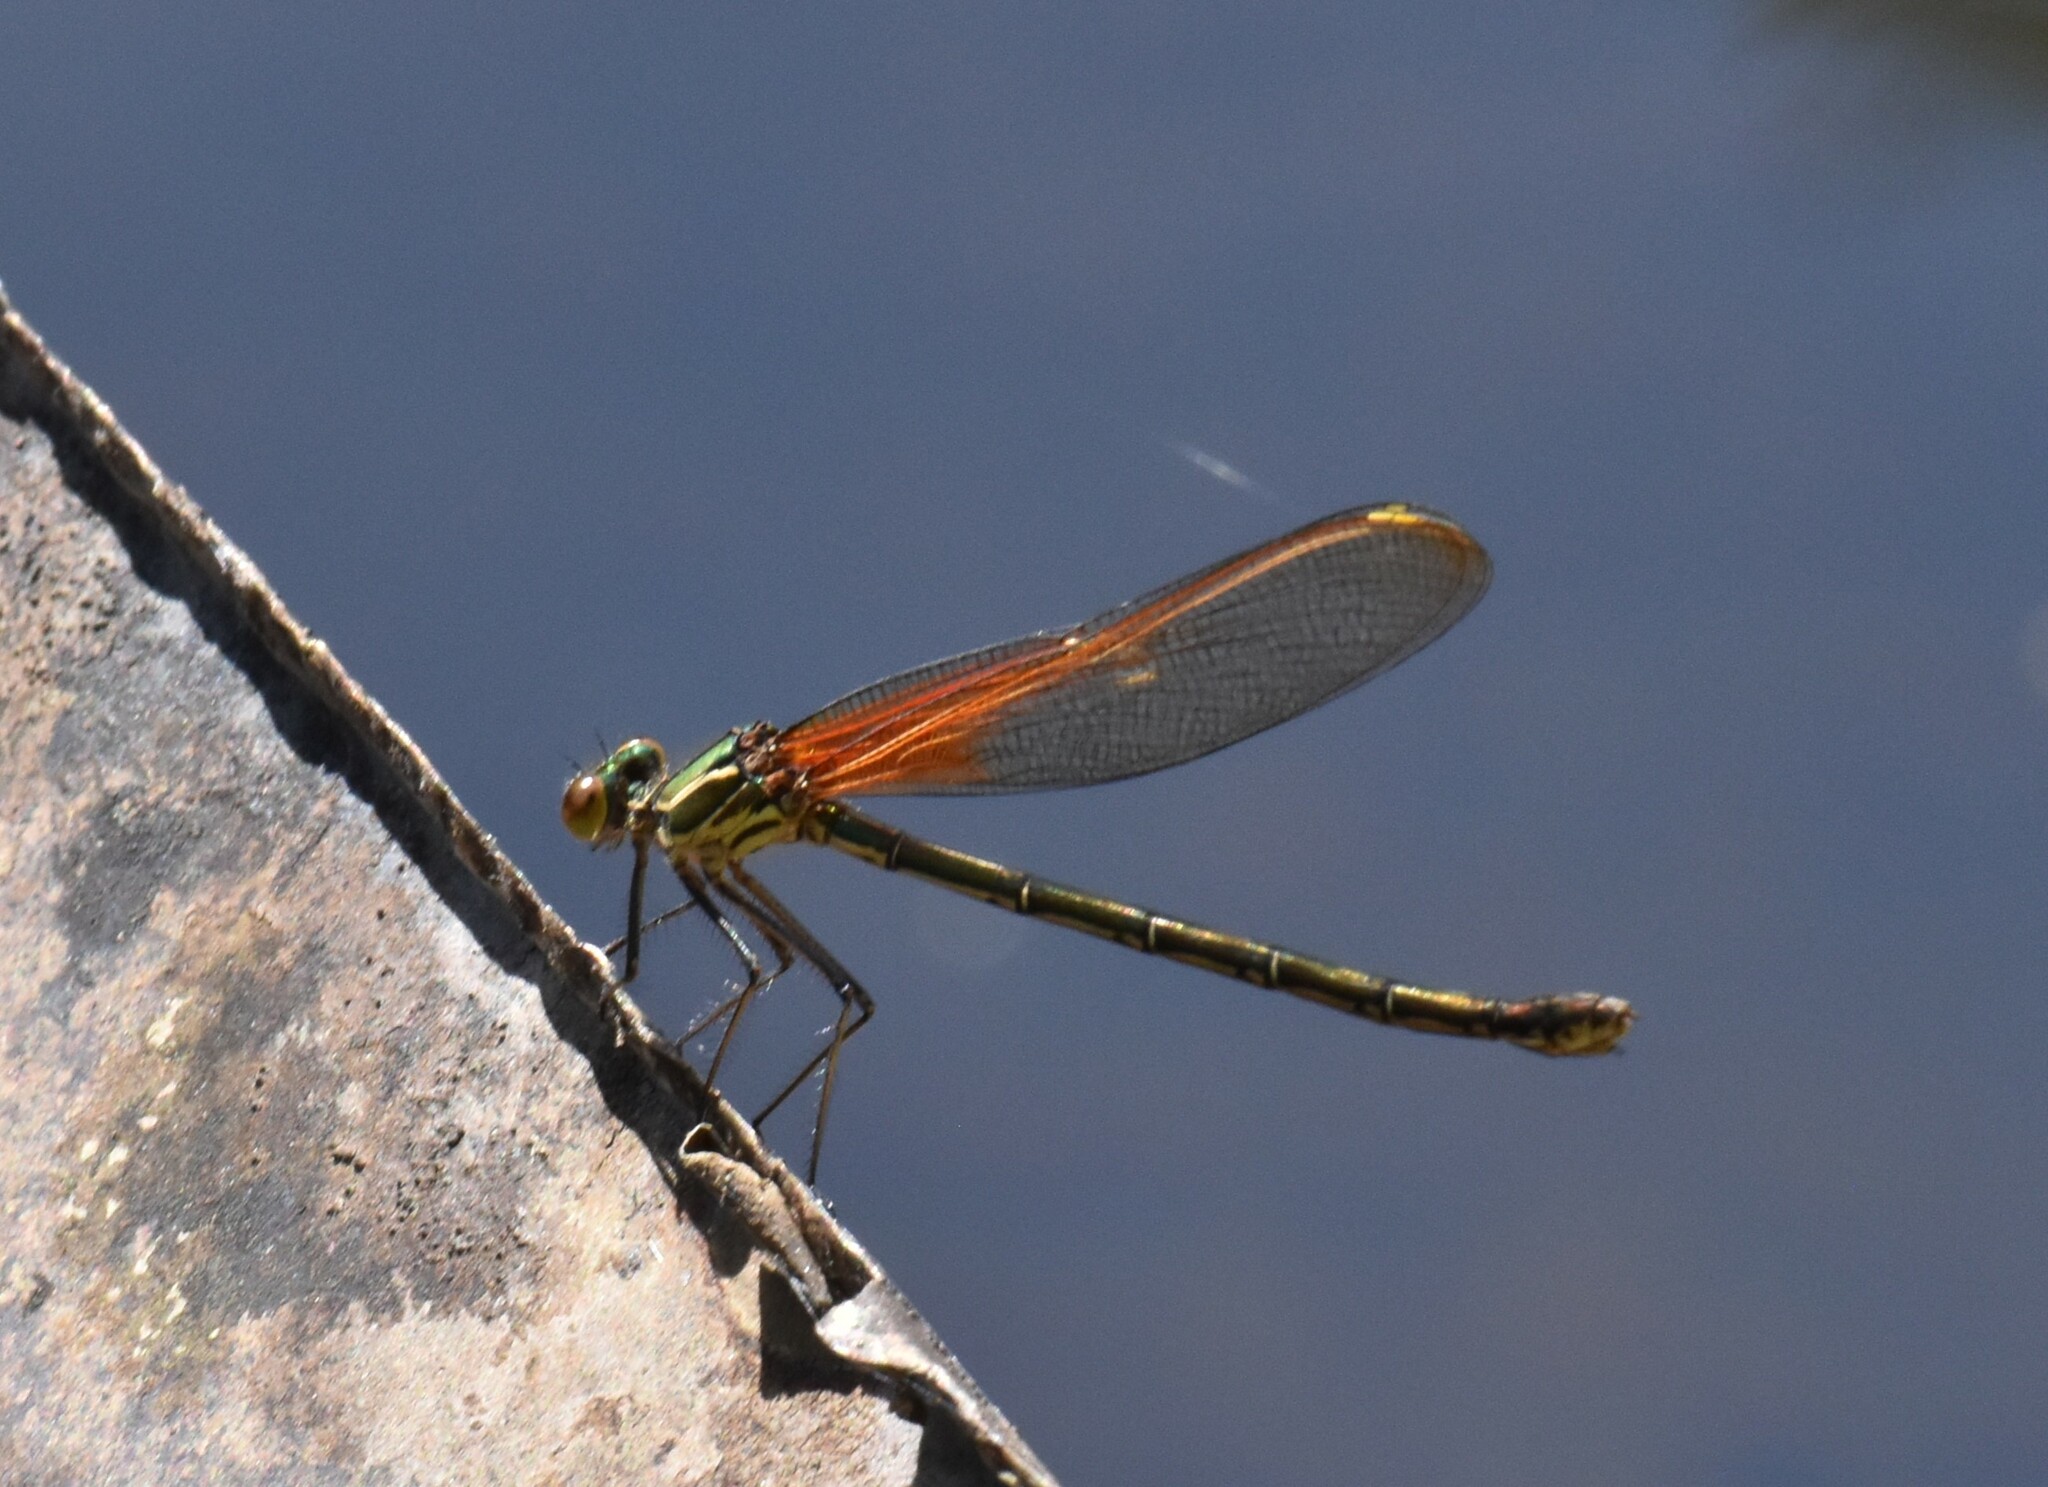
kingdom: Animalia
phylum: Arthropoda
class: Insecta
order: Odonata
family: Calopterygidae
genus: Hetaerina
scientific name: Hetaerina americana
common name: American rubyspot
